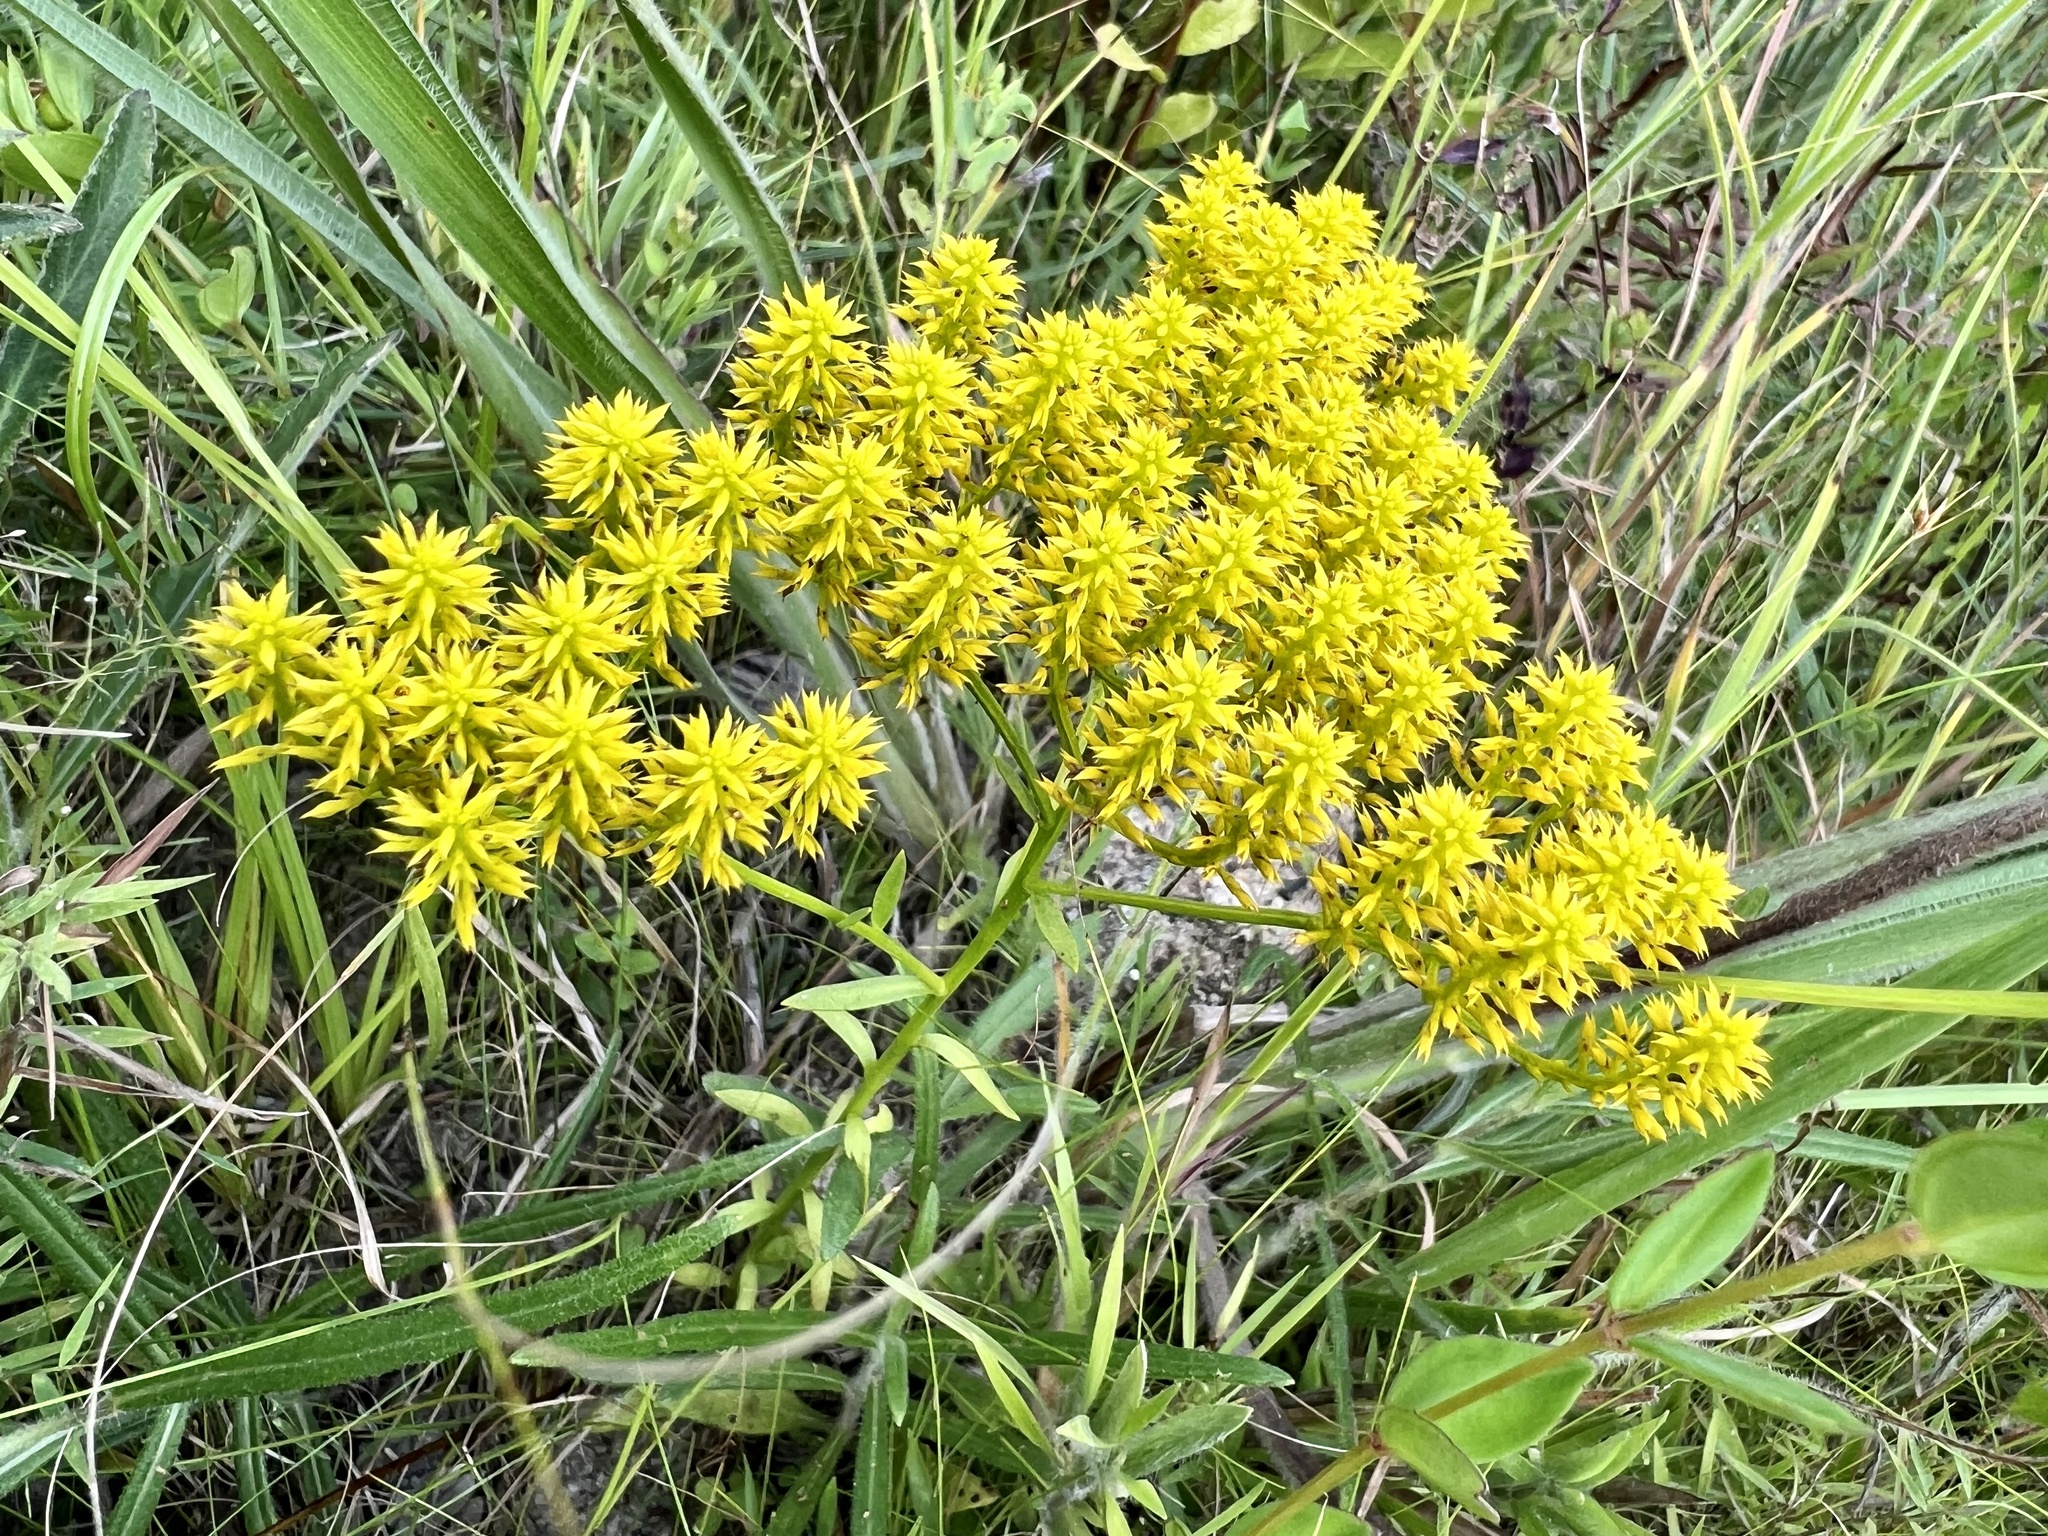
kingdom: Plantae
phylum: Tracheophyta
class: Magnoliopsida
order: Fabales
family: Polygalaceae
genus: Polygala
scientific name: Polygala ramosa
